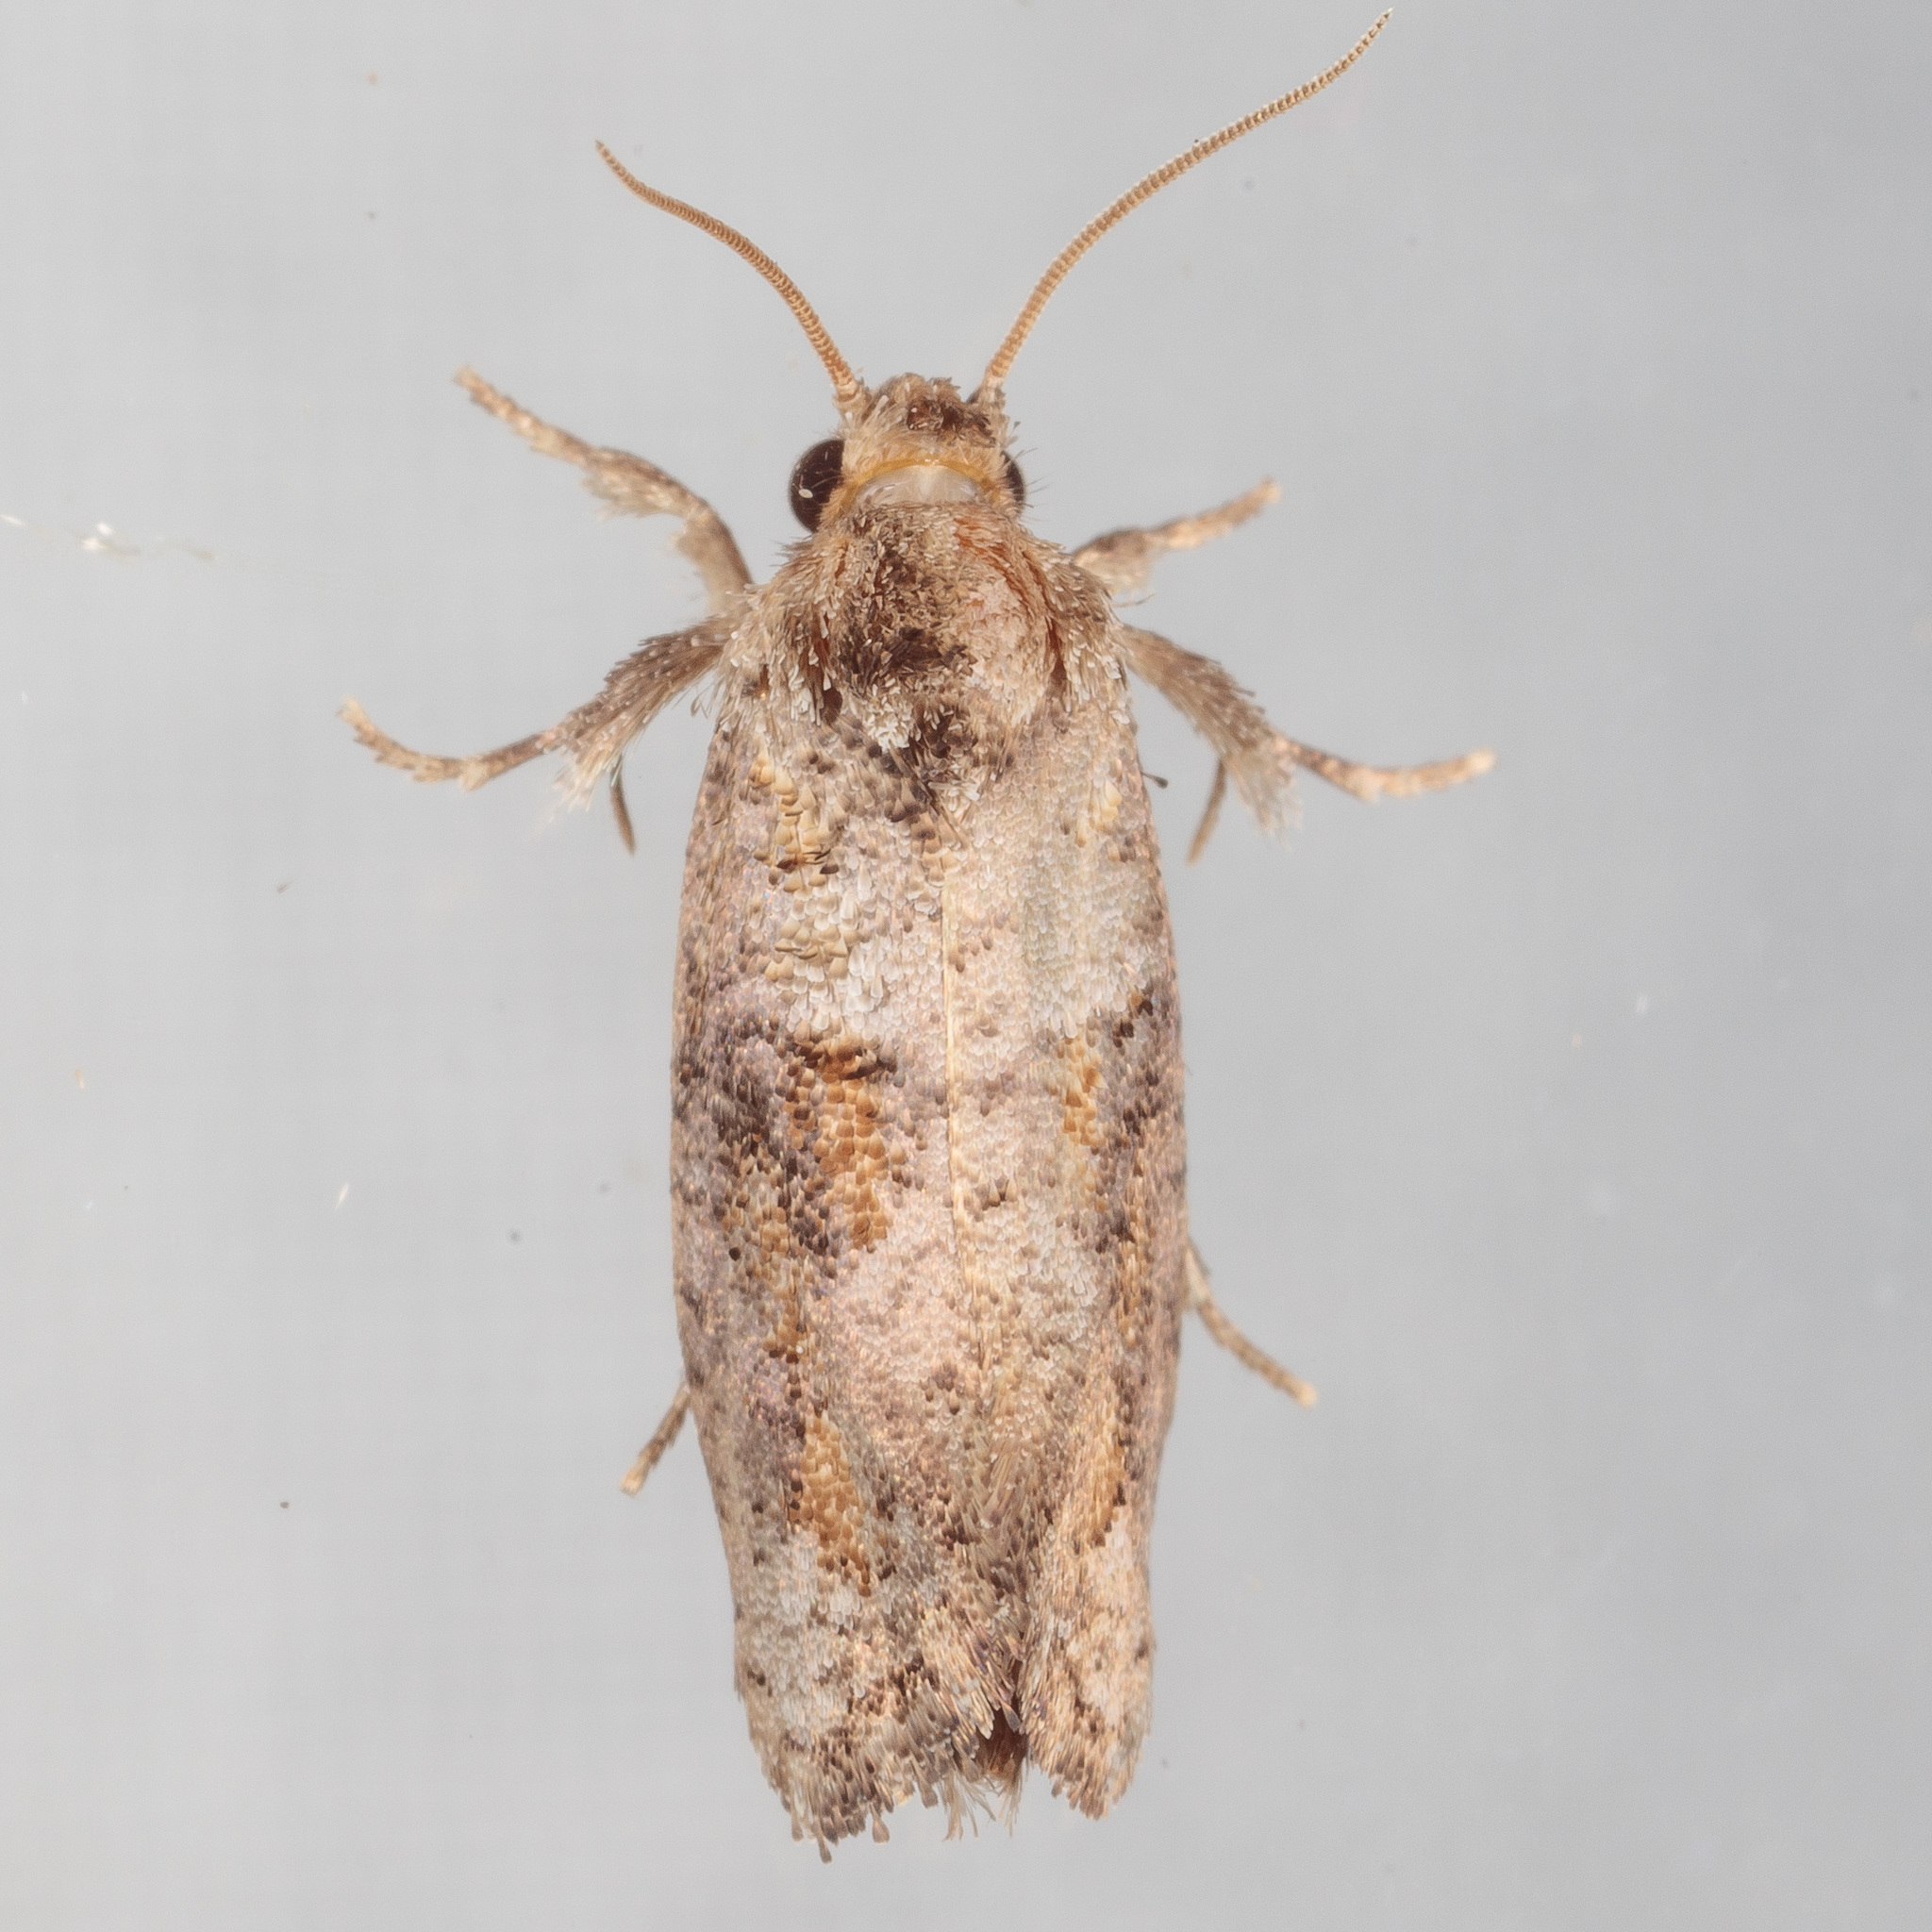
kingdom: Animalia
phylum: Arthropoda
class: Insecta
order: Lepidoptera
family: Tineidae
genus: Acrolophus
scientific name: Acrolophus piger
